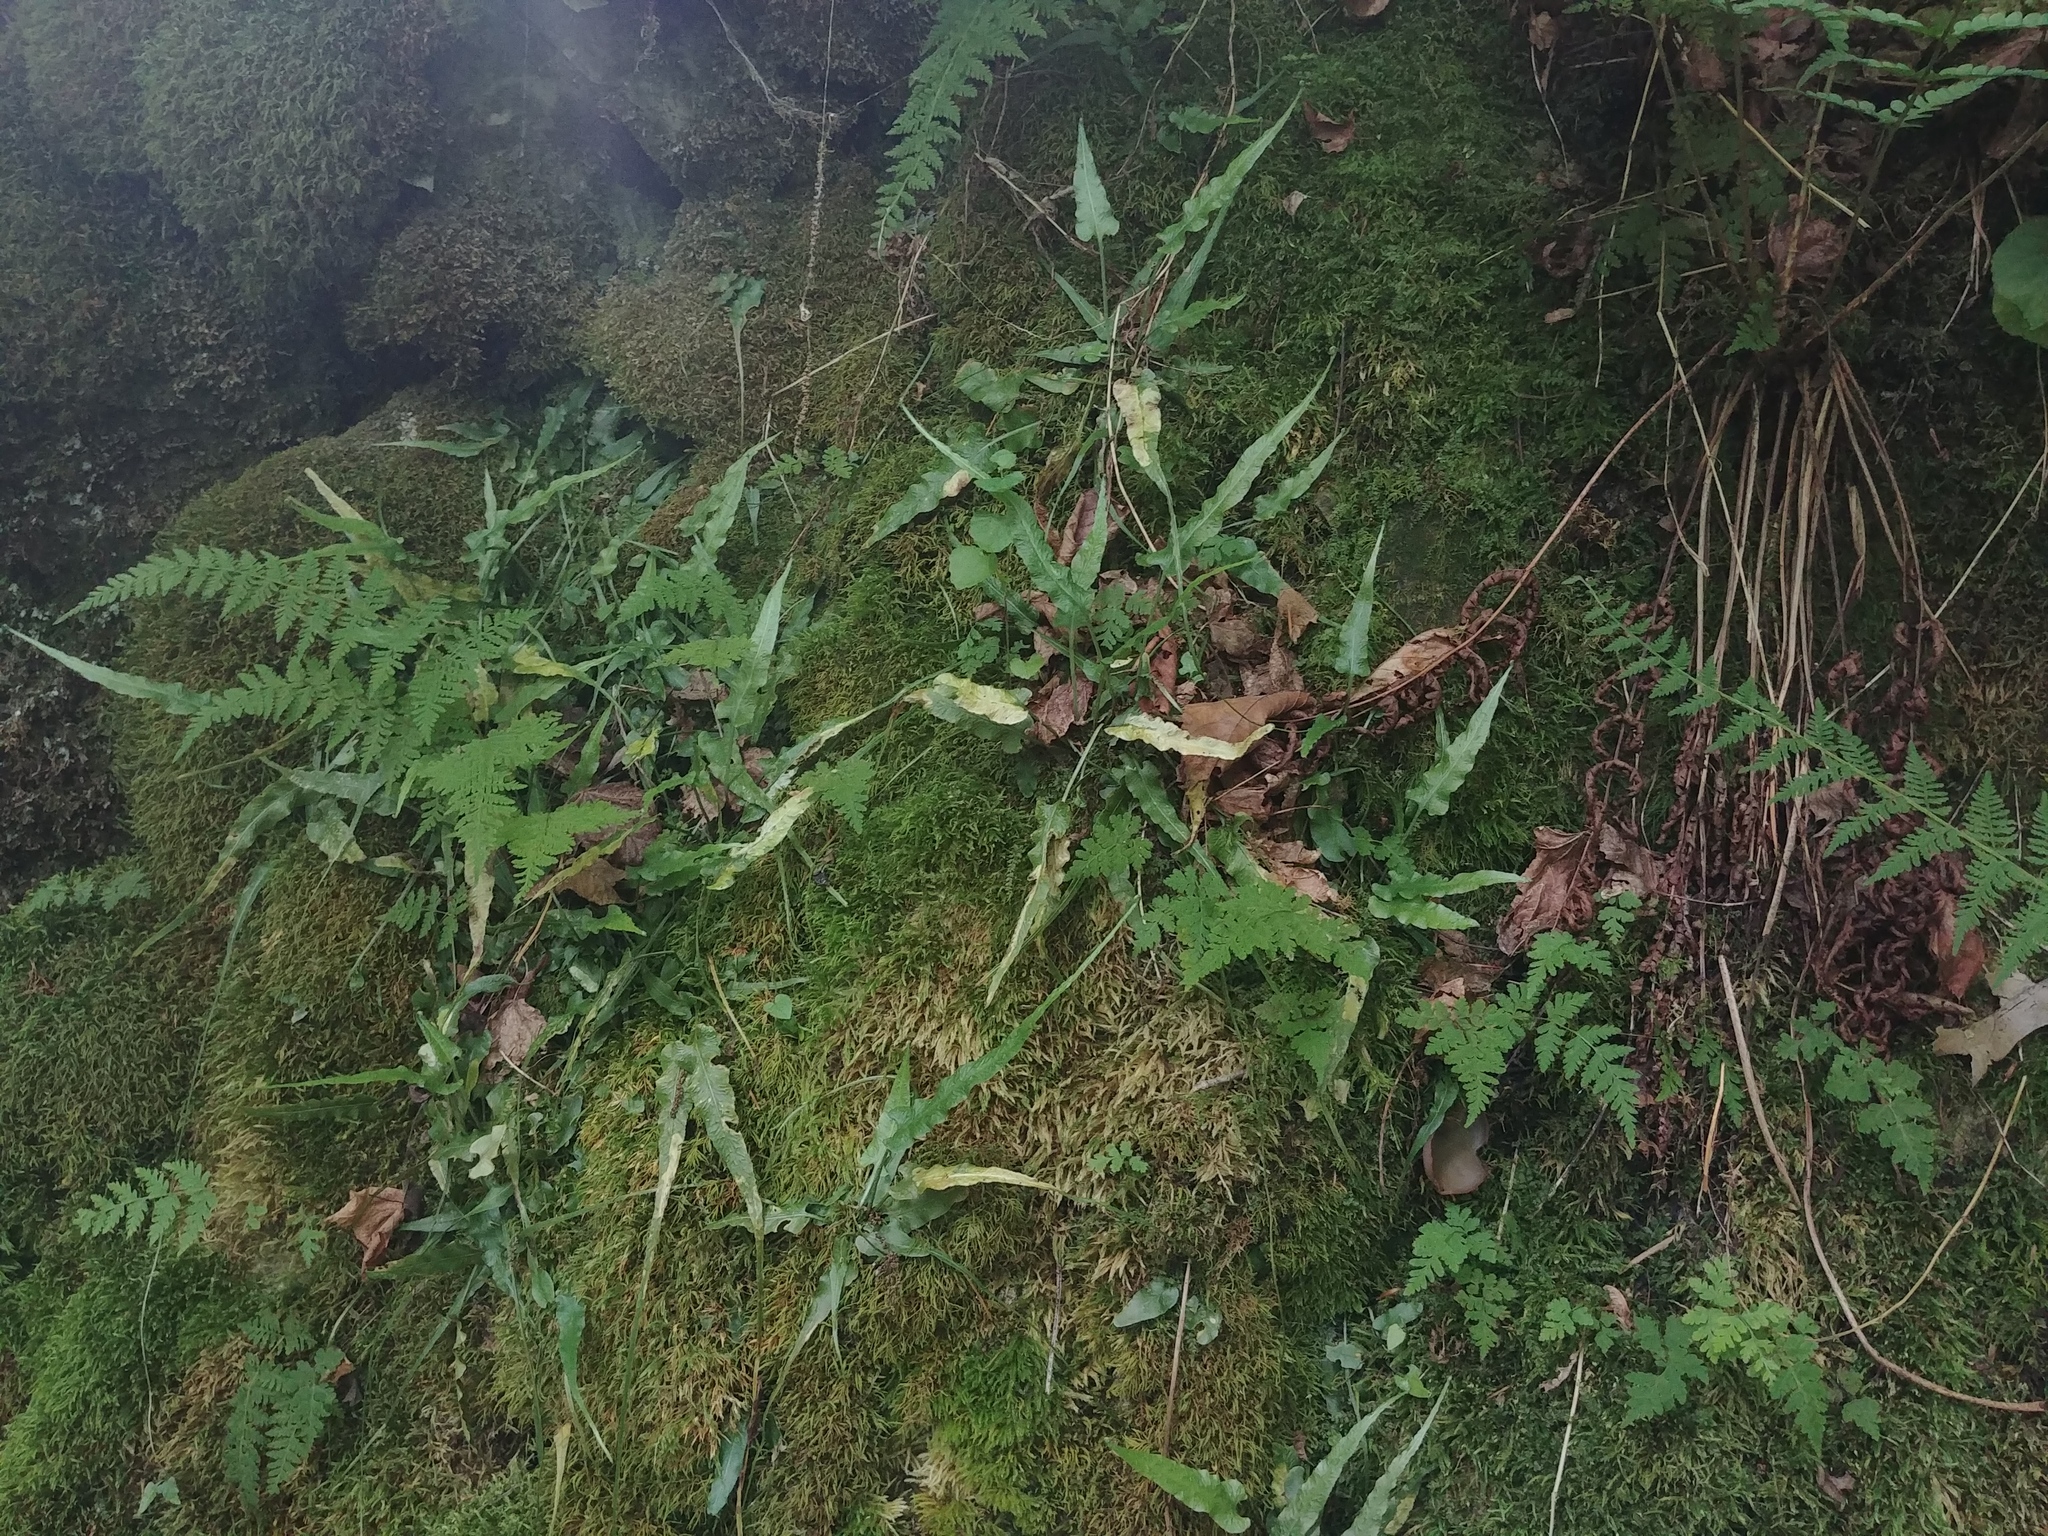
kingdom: Plantae
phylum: Tracheophyta
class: Polypodiopsida
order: Polypodiales
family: Aspleniaceae
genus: Asplenium
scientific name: Asplenium rhizophyllum
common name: Walking fern
